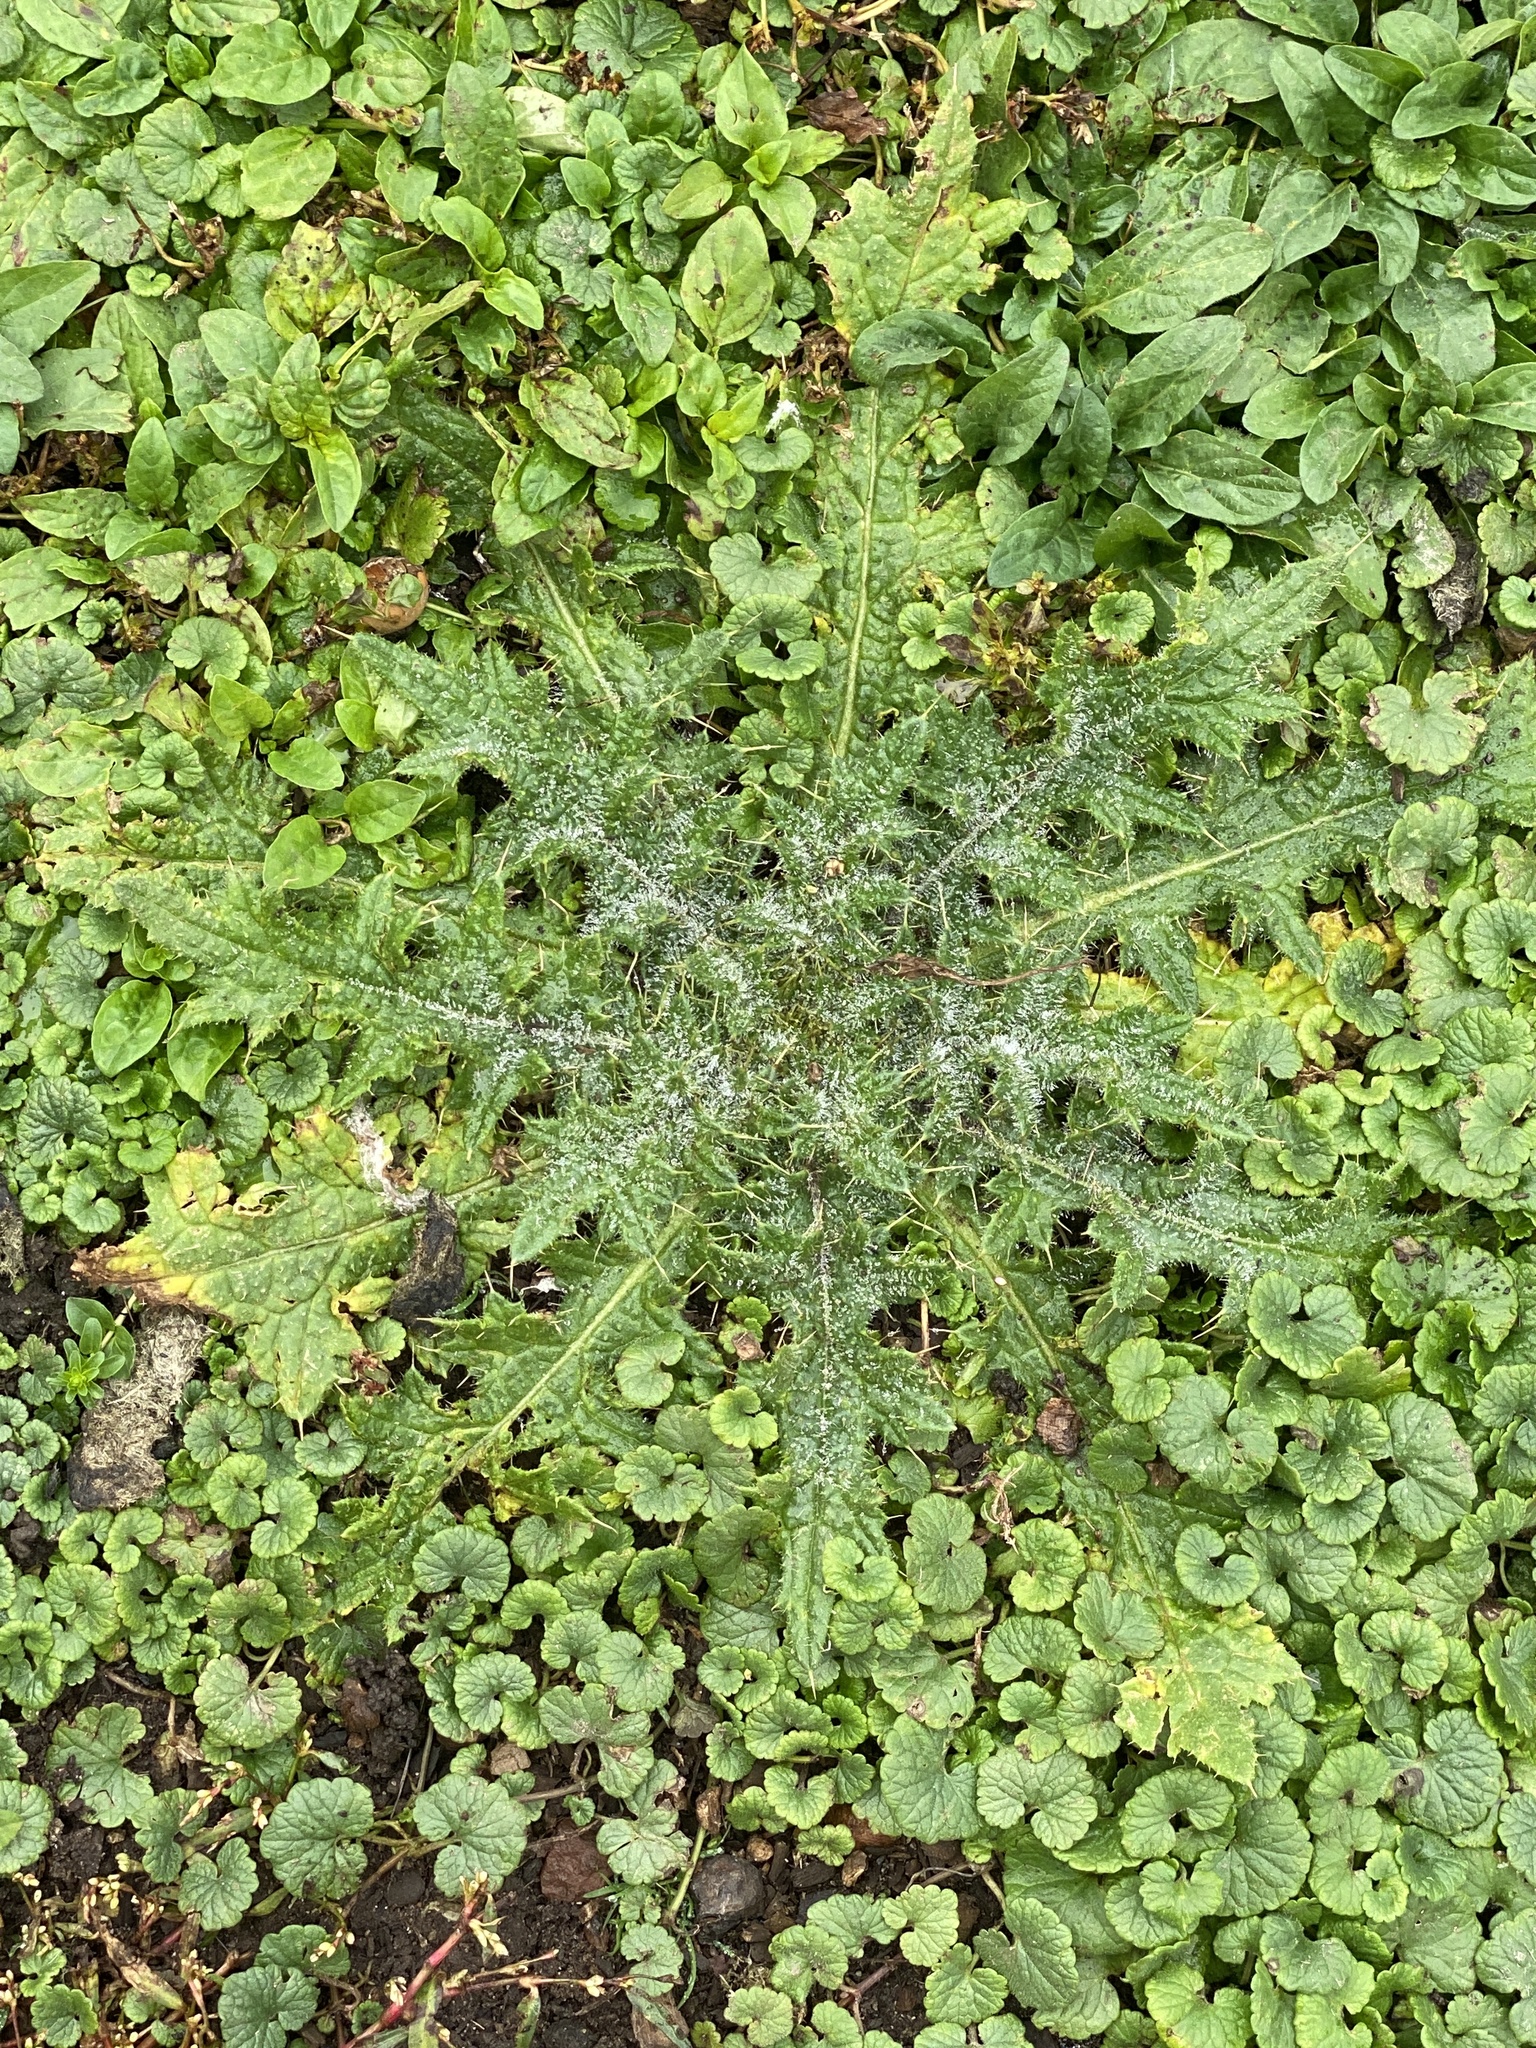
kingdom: Plantae
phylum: Tracheophyta
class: Magnoliopsida
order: Asterales
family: Asteraceae
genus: Cirsium
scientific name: Cirsium vulgare
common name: Bull thistle
